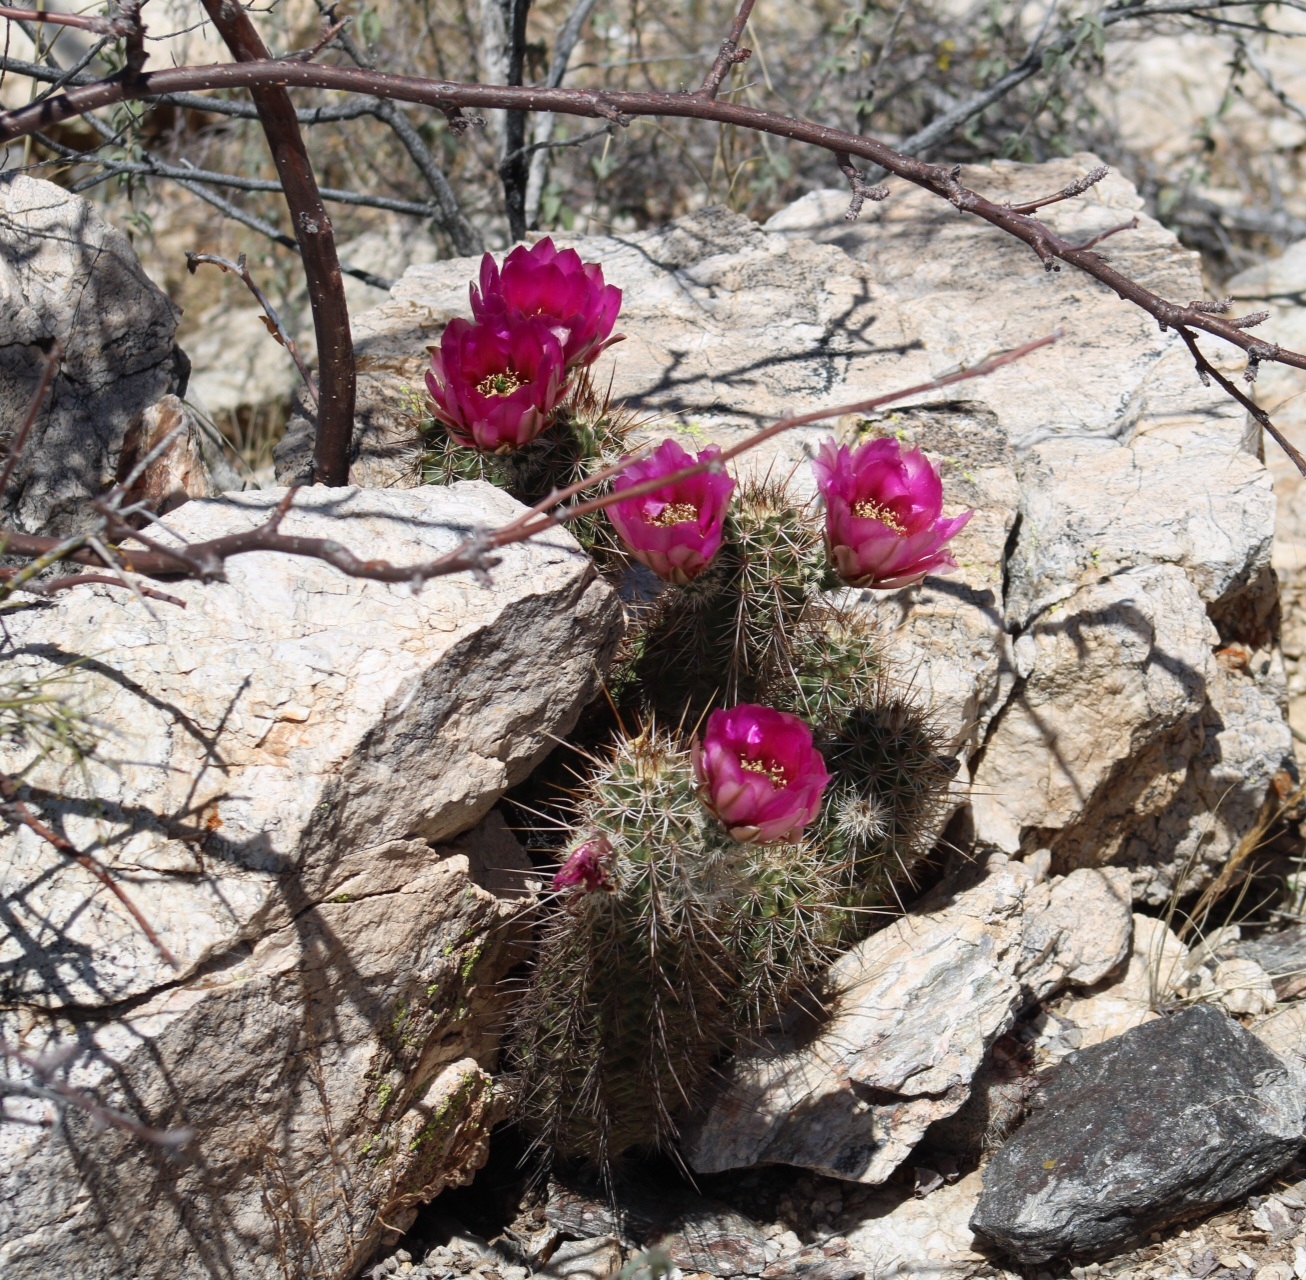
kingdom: Plantae
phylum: Tracheophyta
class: Magnoliopsida
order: Caryophyllales
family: Cactaceae
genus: Echinocereus
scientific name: Echinocereus fasciculatus
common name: Bundle hedgehog
